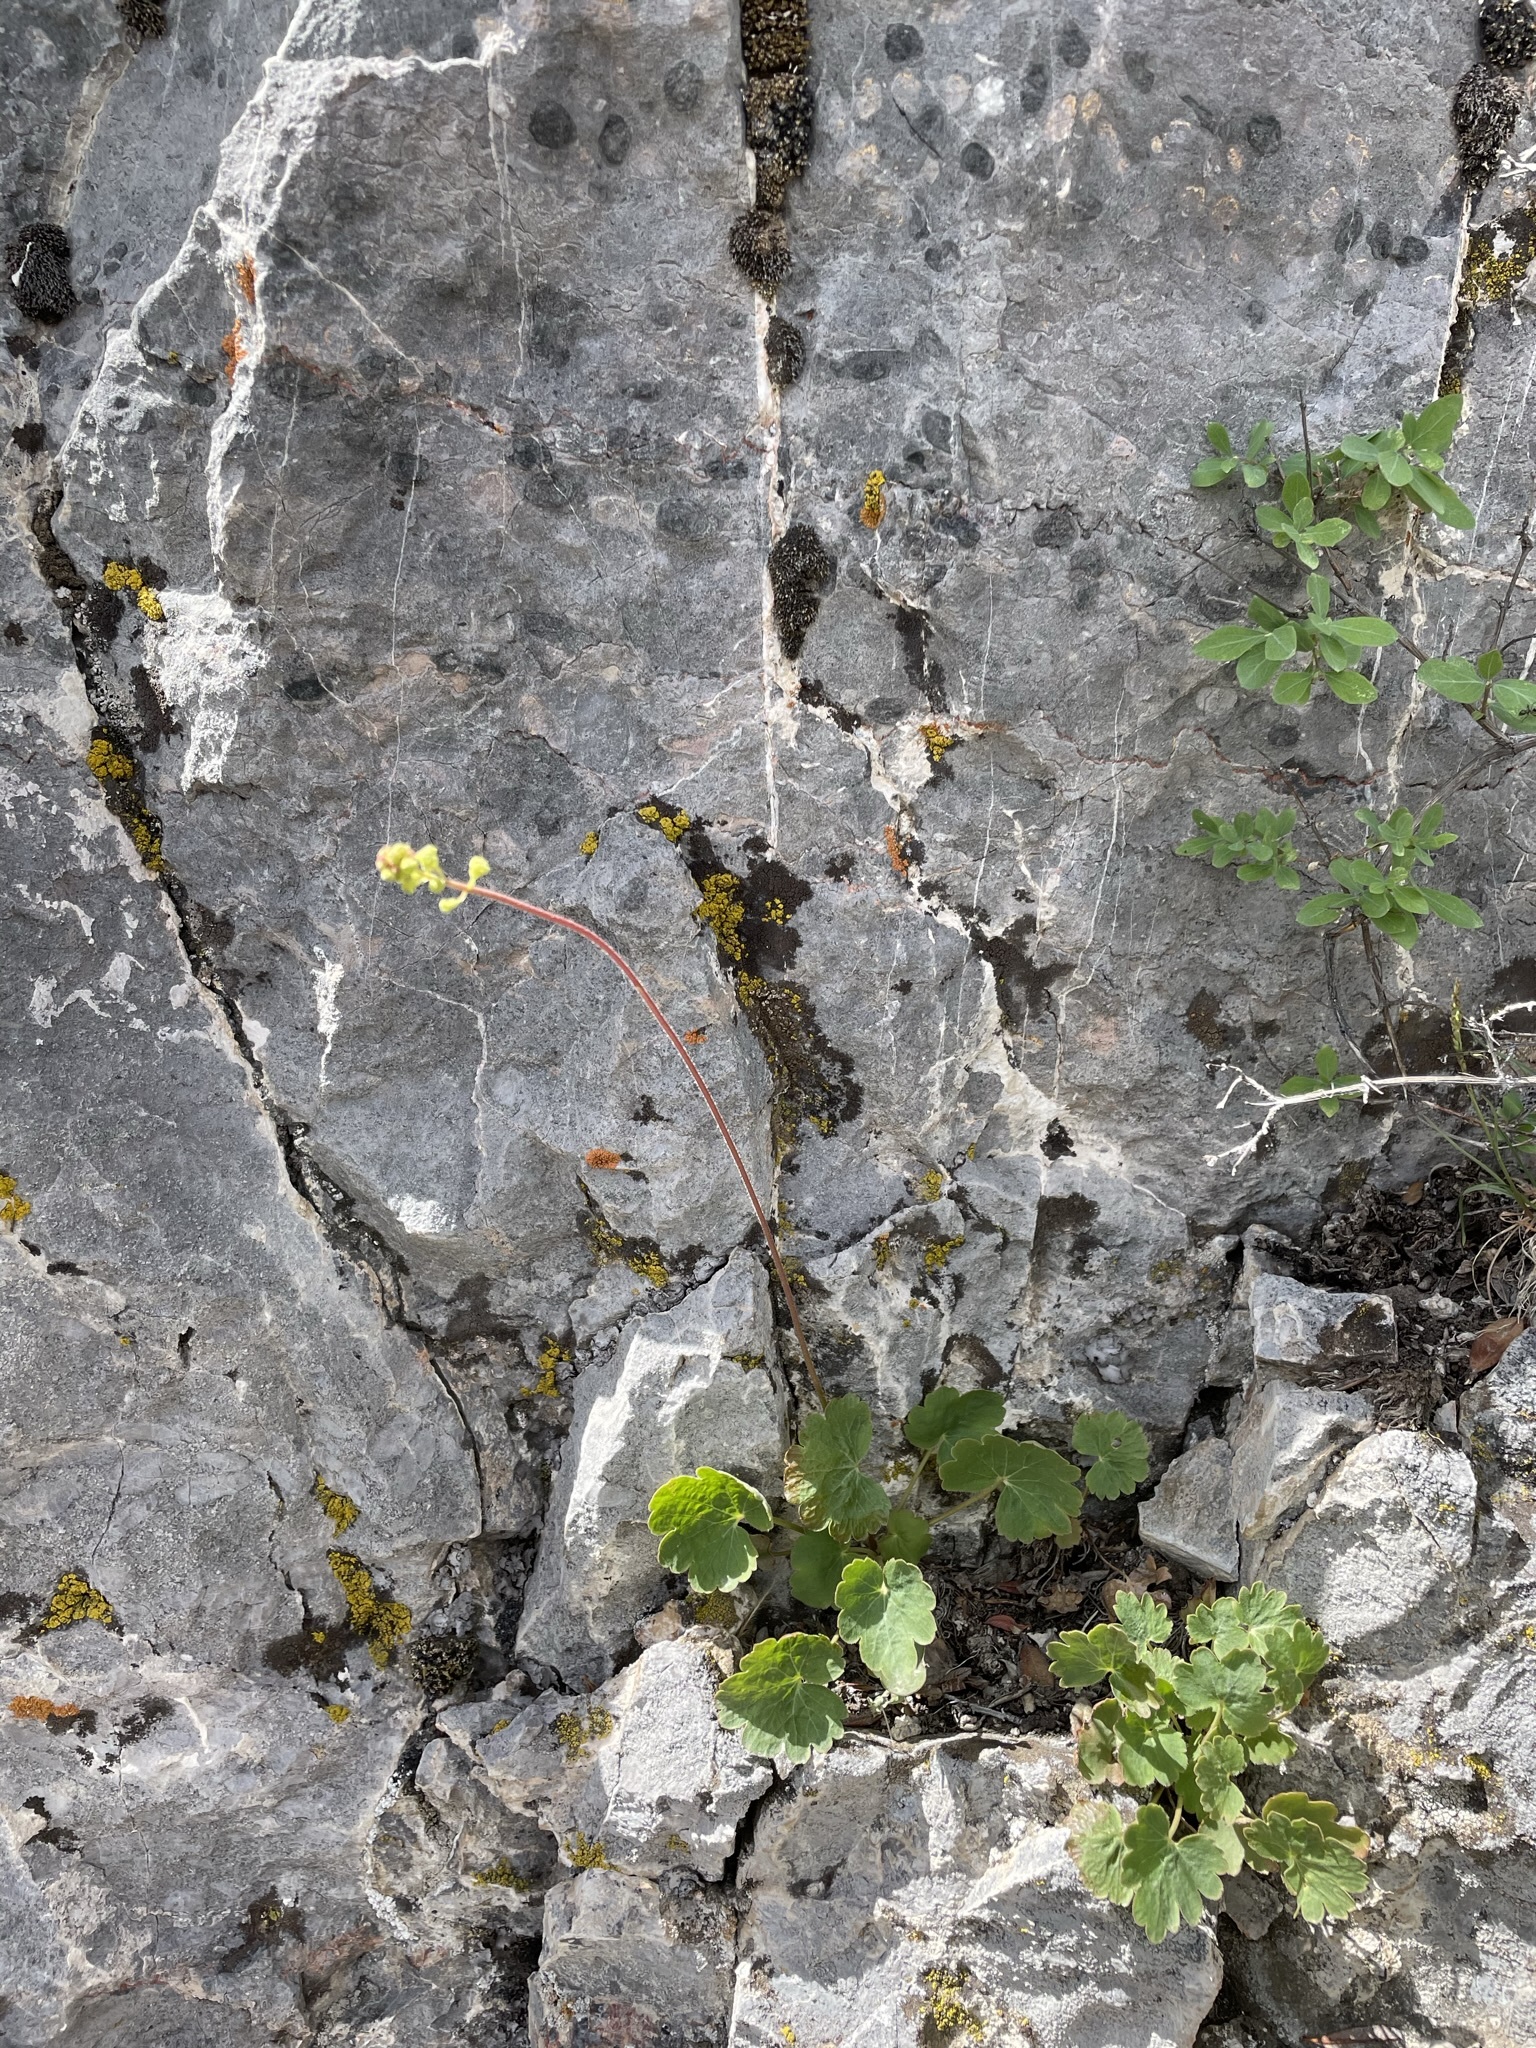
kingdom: Plantae
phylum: Tracheophyta
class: Magnoliopsida
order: Saxifragales
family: Saxifragaceae
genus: Heuchera
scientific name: Heuchera parvifolia
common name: Common alumroot
